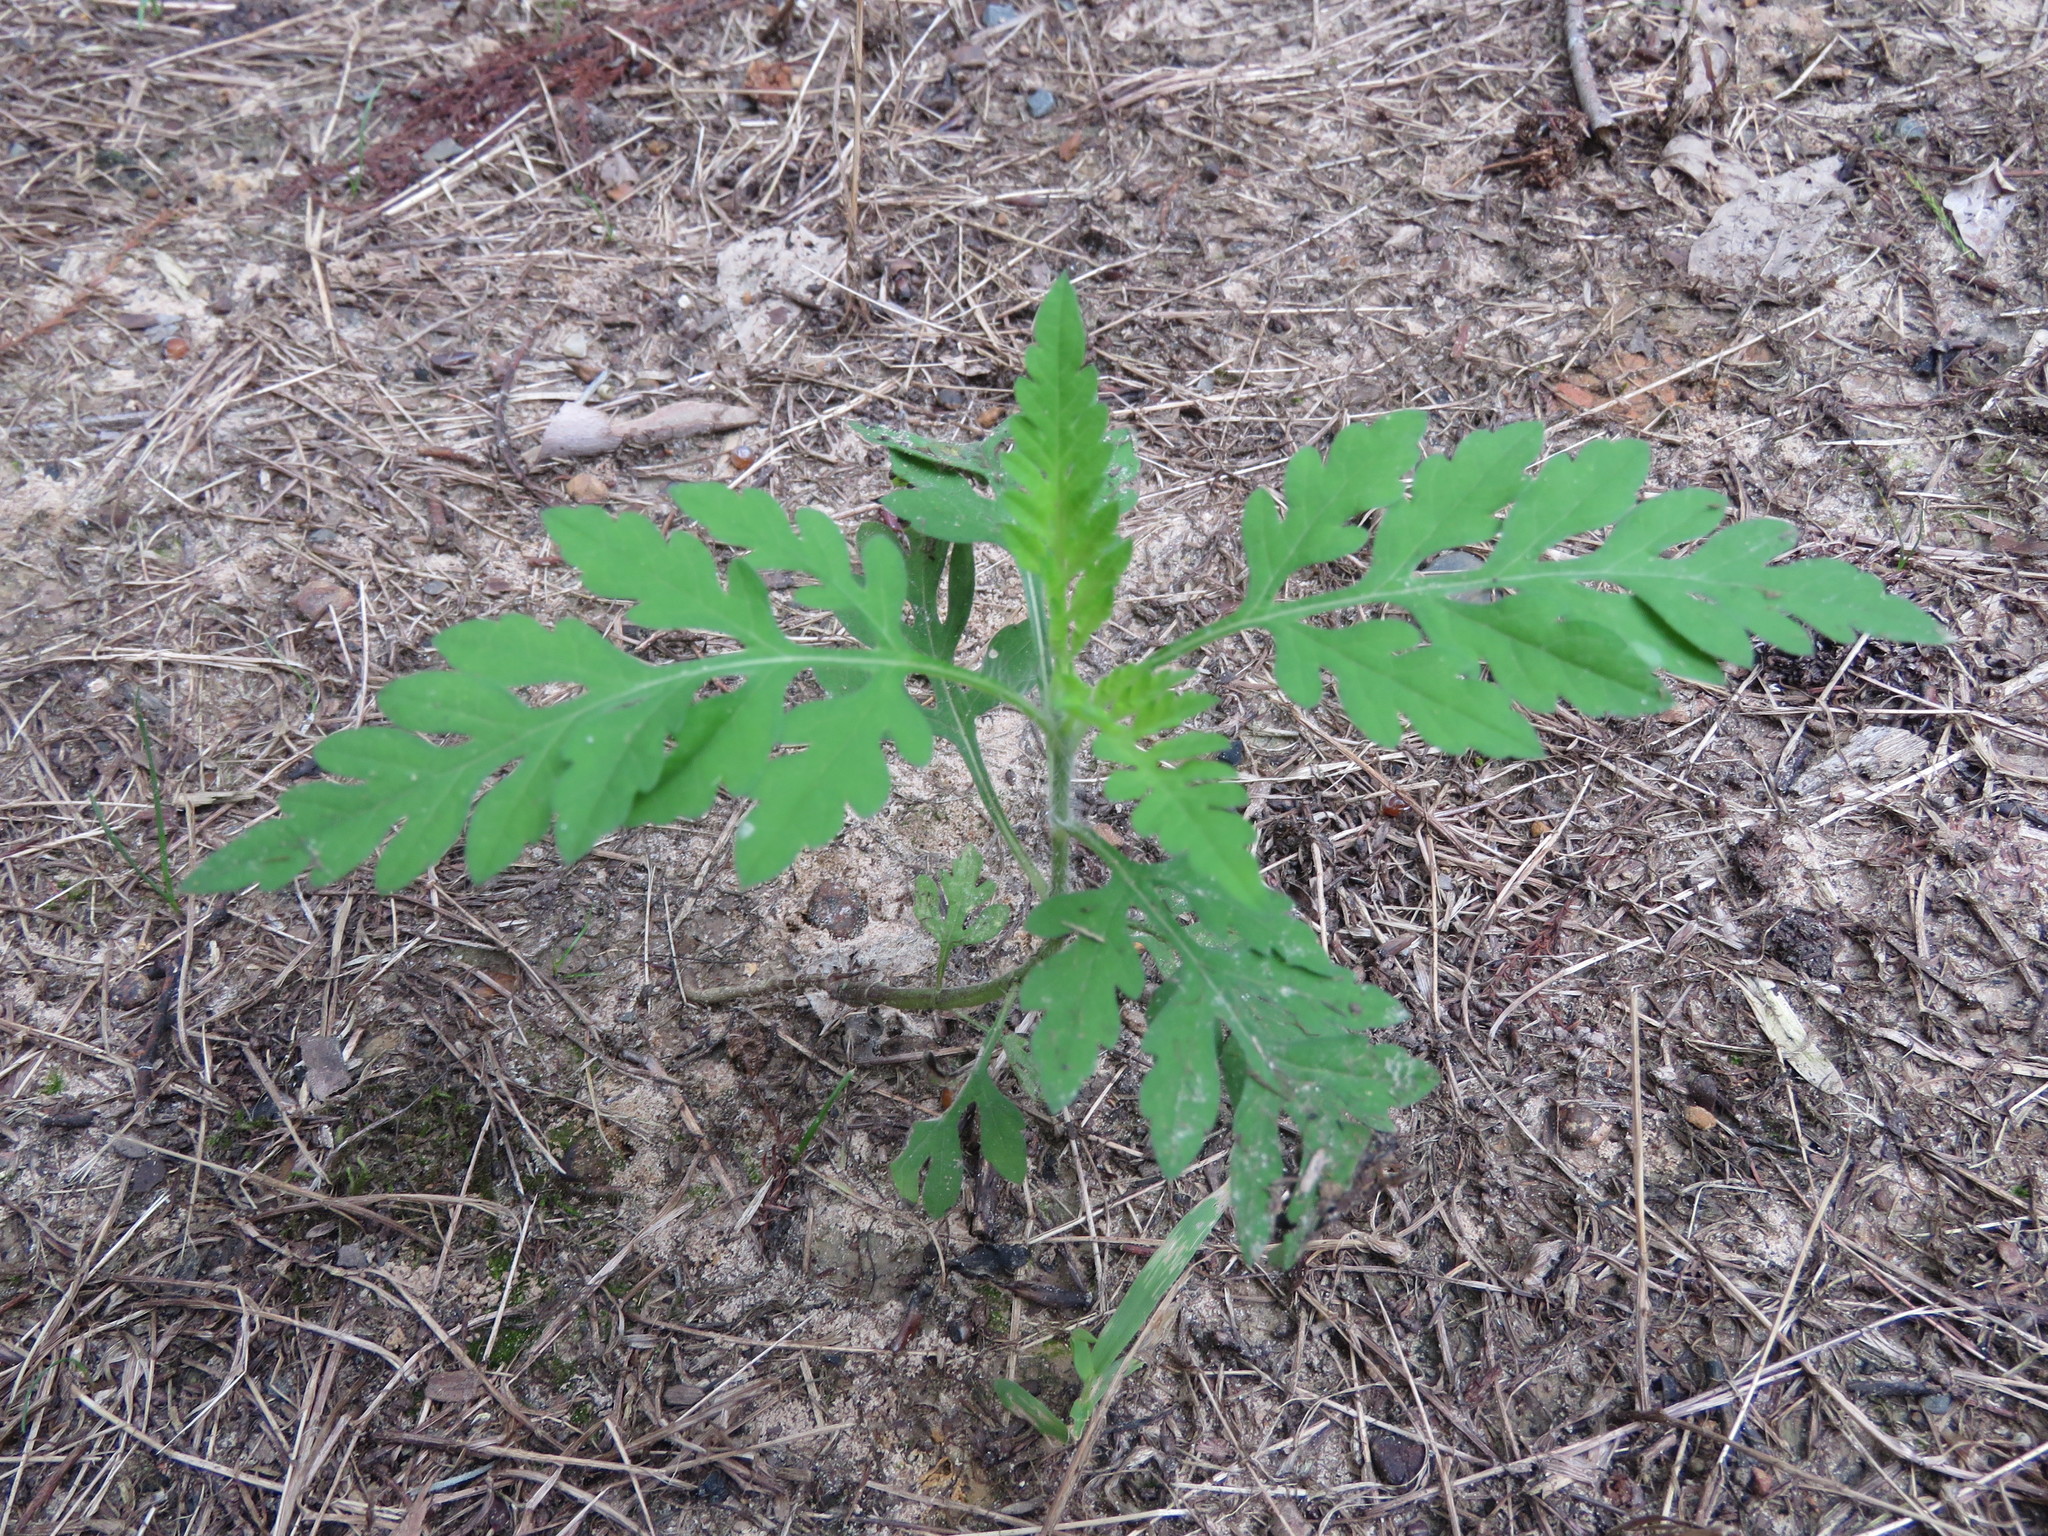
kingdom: Plantae
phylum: Tracheophyta
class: Magnoliopsida
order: Asterales
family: Asteraceae
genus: Ambrosia
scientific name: Ambrosia artemisiifolia
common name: Annual ragweed
